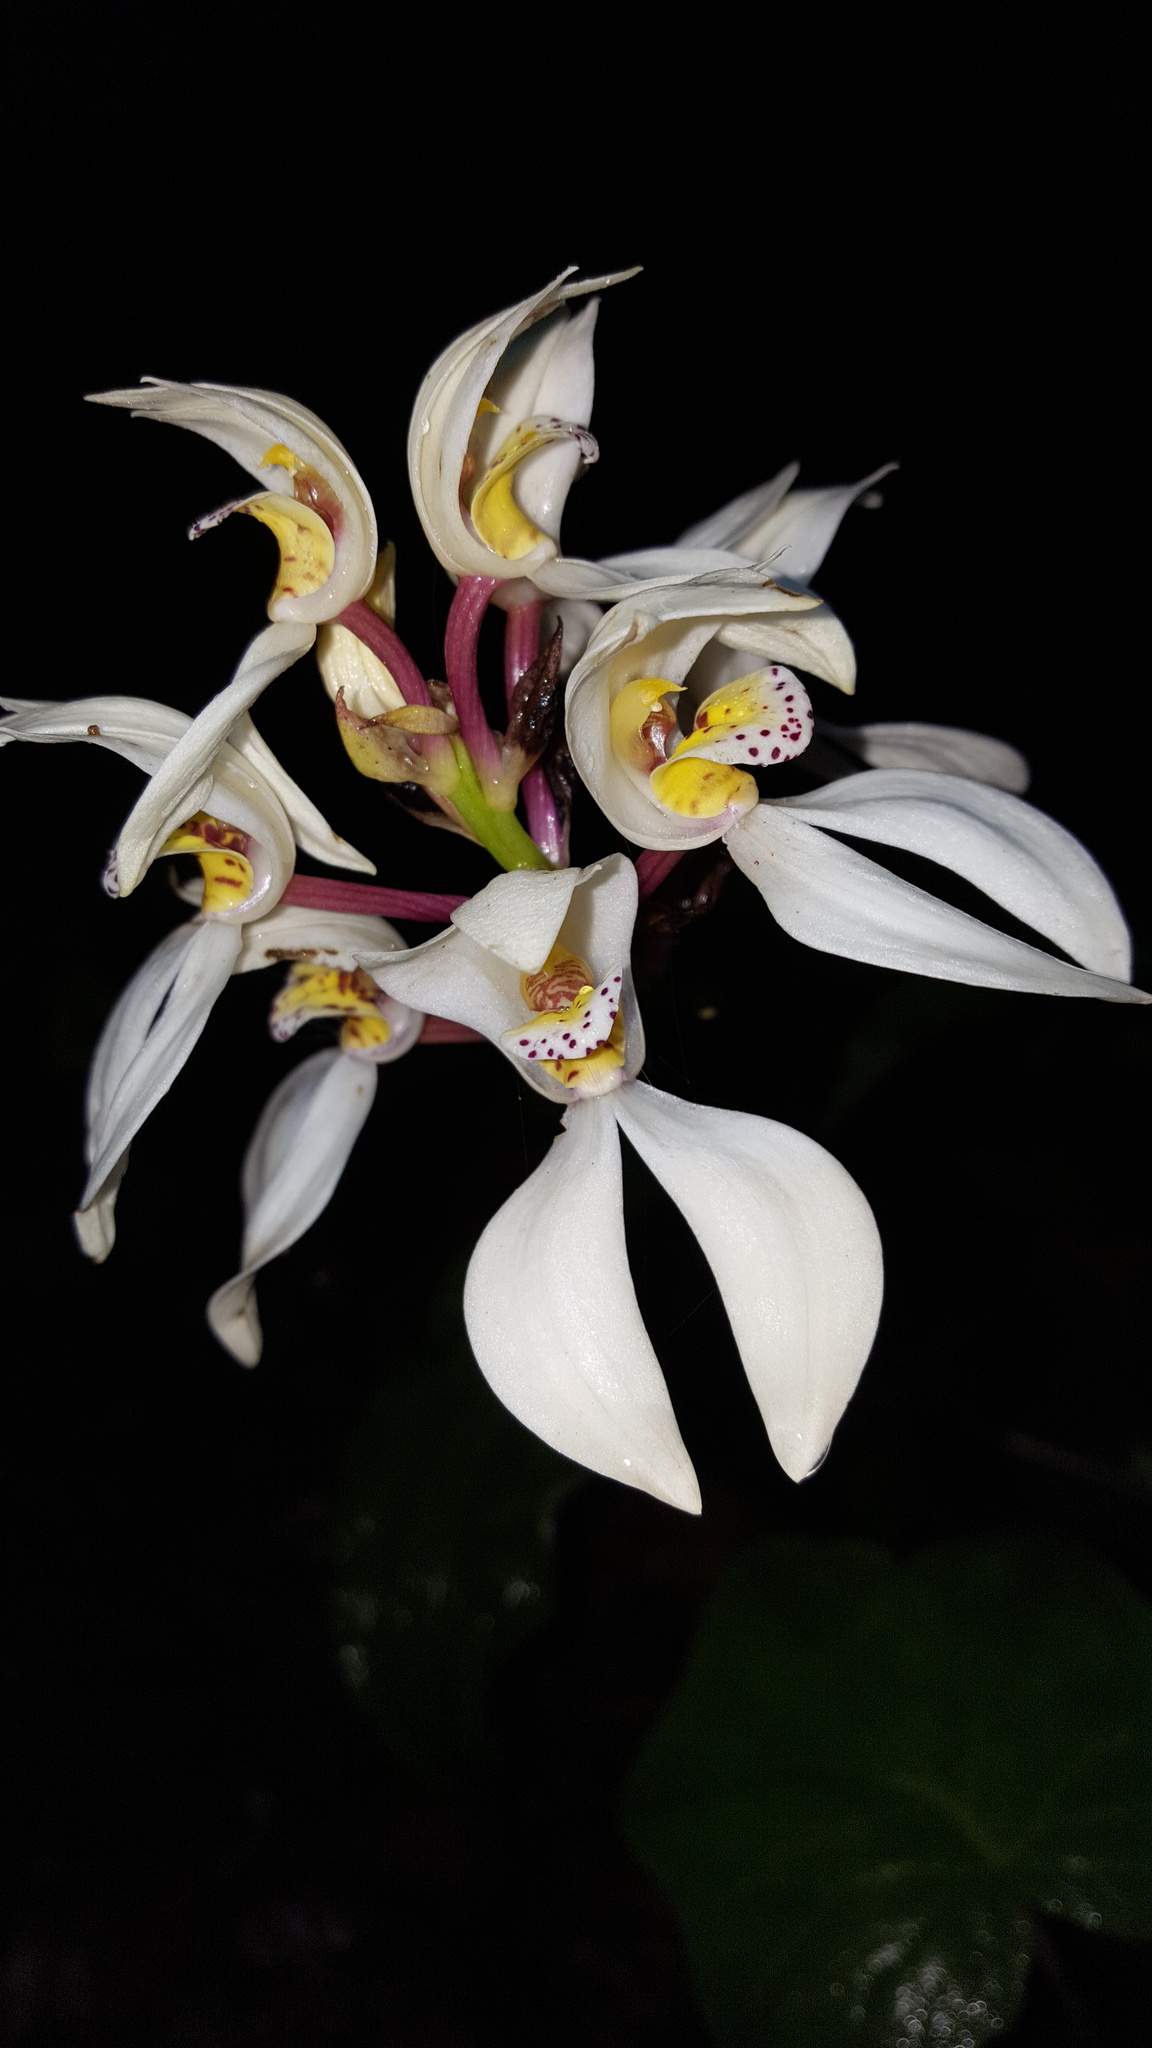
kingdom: Plantae
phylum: Tracheophyta
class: Liliopsida
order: Asparagales
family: Orchidaceae
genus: Govenia
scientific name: Govenia capitata
